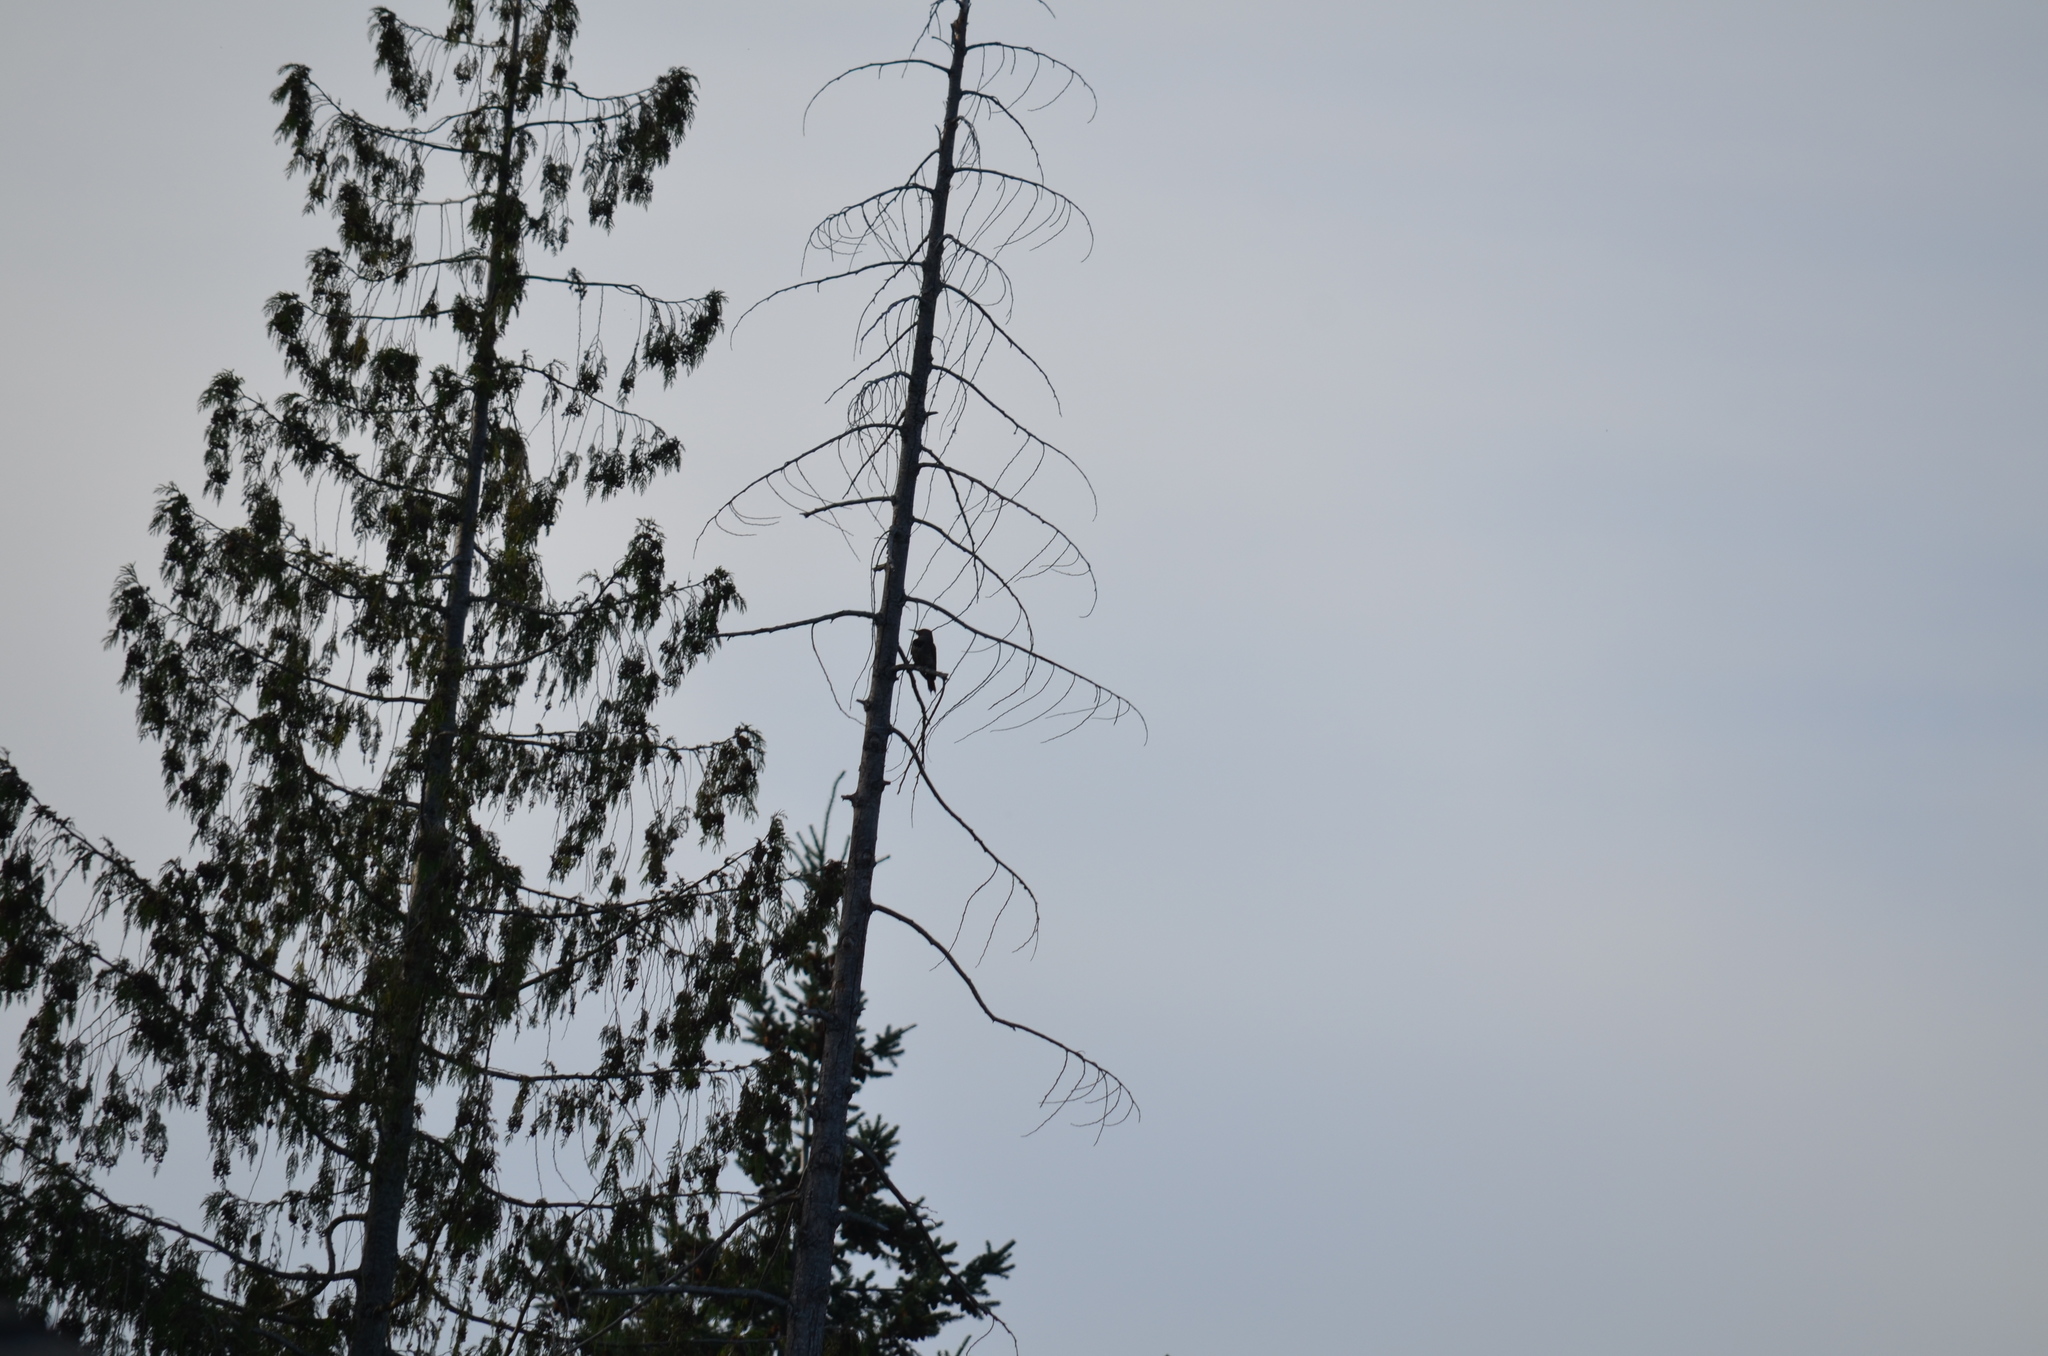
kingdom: Animalia
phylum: Chordata
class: Aves
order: Piciformes
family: Picidae
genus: Colaptes
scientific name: Colaptes auratus
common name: Northern flicker
